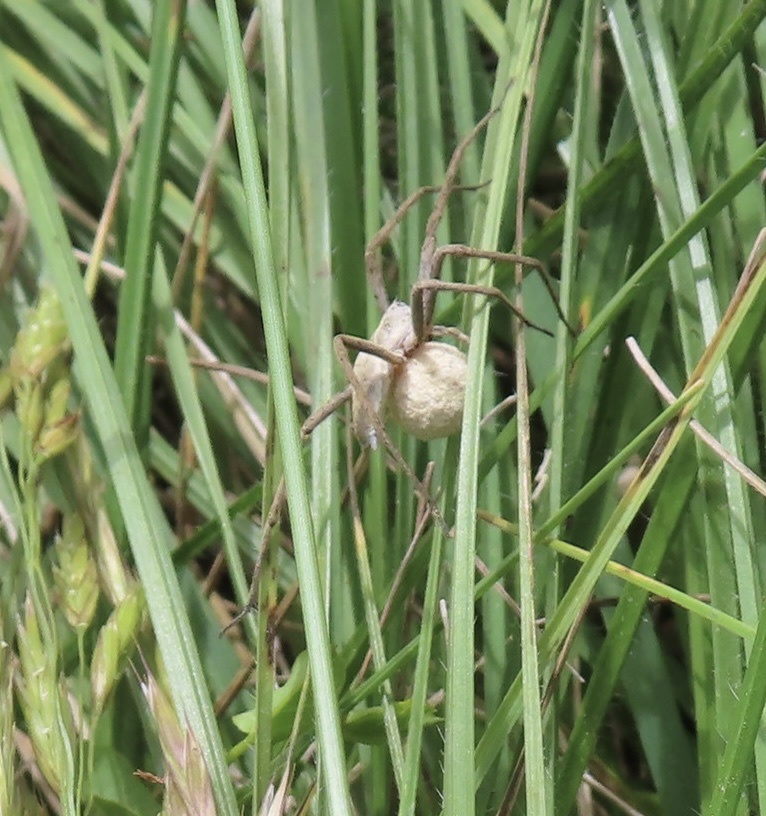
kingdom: Animalia
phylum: Arthropoda
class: Arachnida
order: Araneae
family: Pisauridae
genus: Pisaura
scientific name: Pisaura mirabilis
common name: Tent spider
